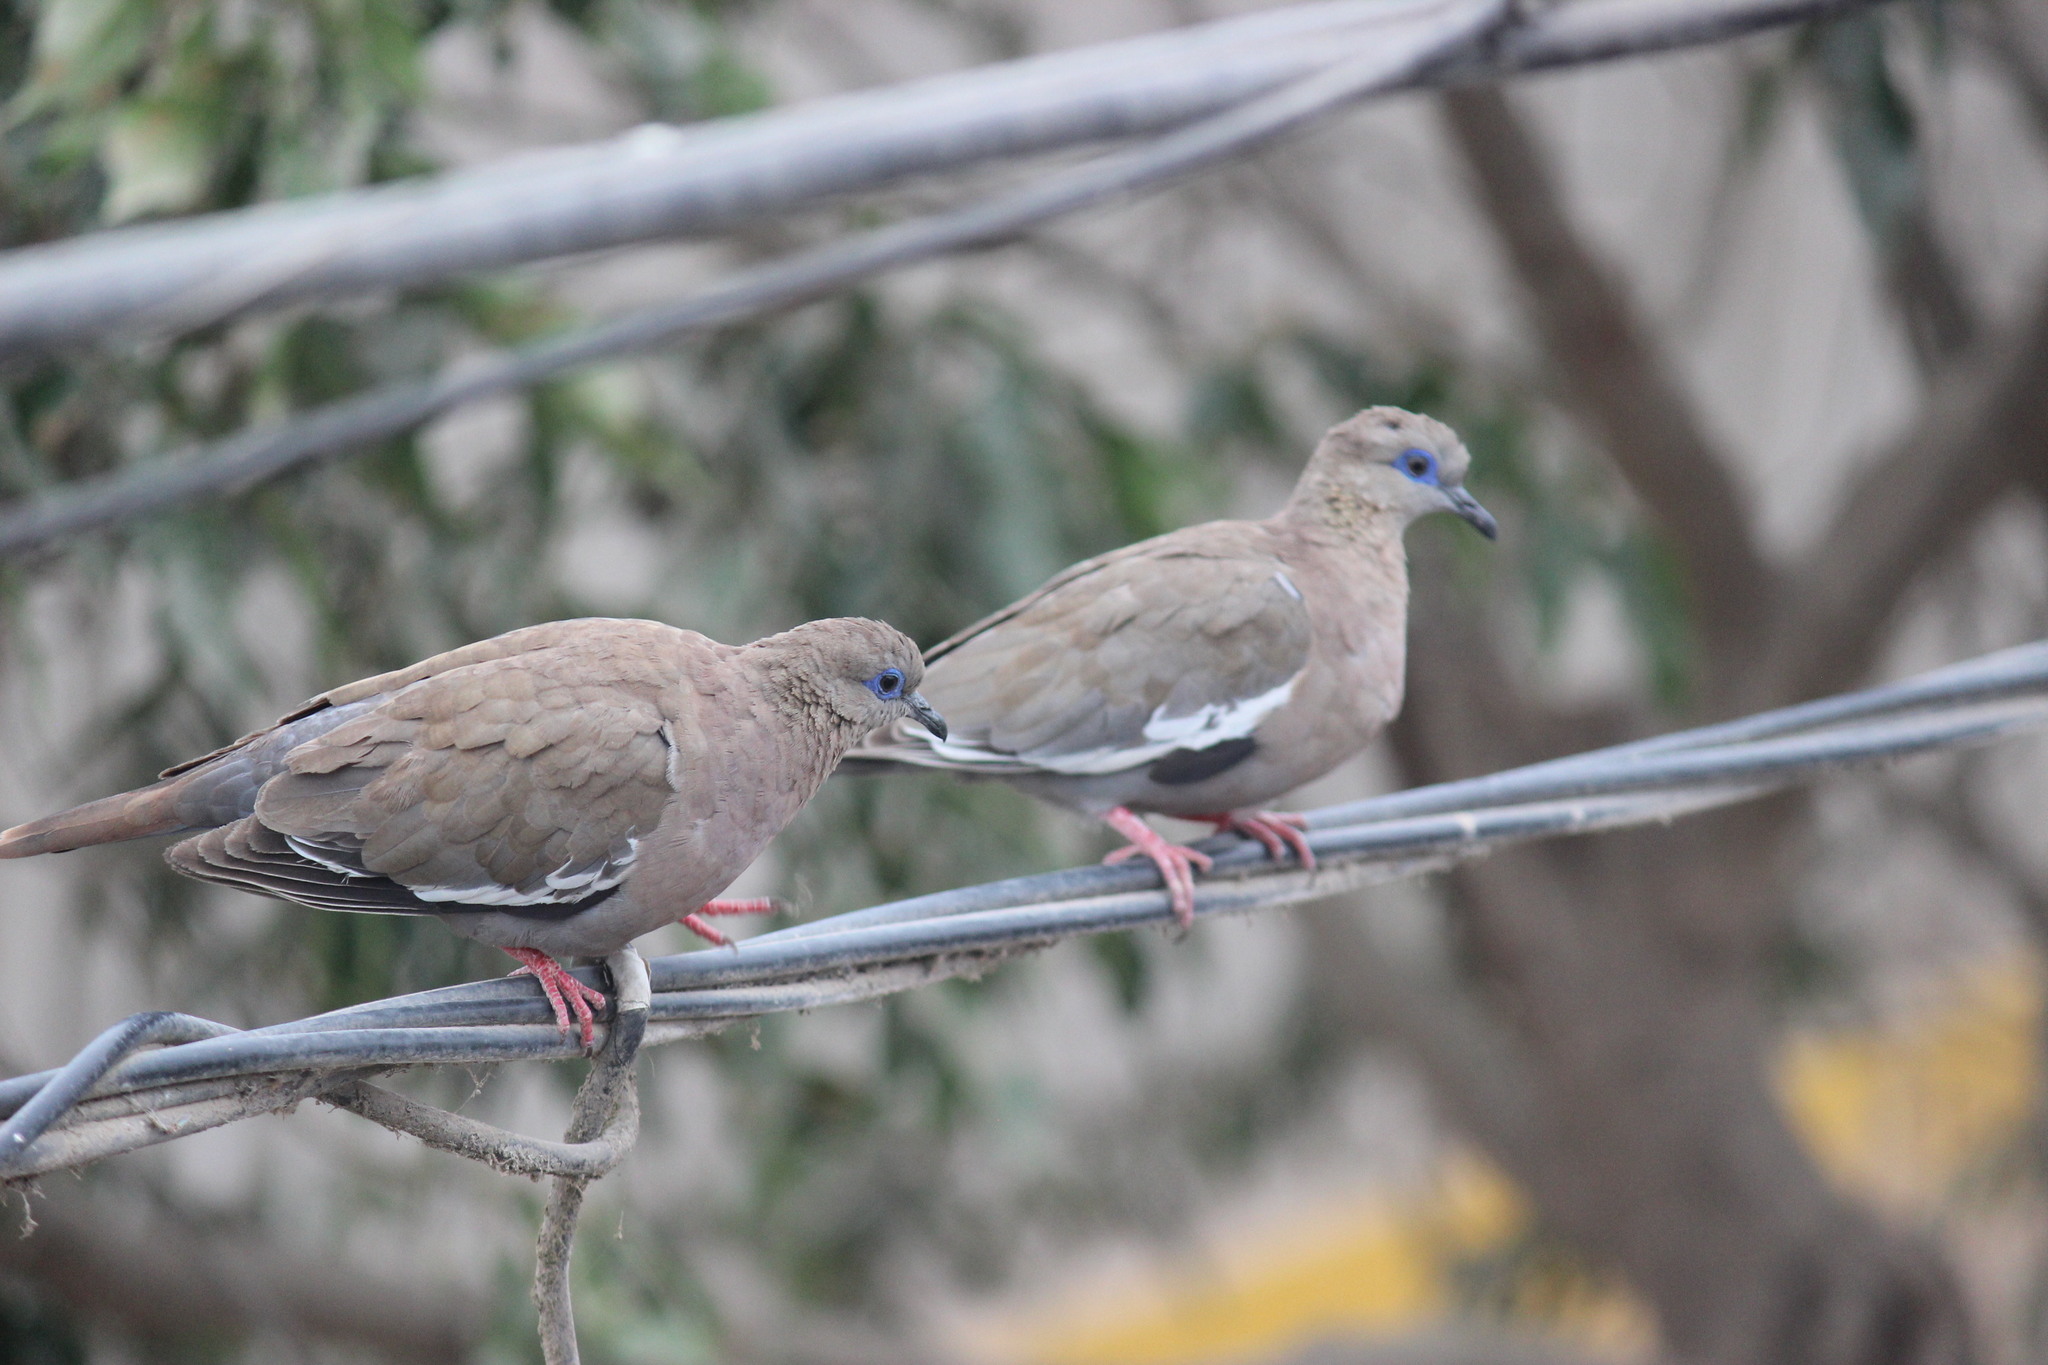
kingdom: Animalia
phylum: Chordata
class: Aves
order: Columbiformes
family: Columbidae
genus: Zenaida
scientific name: Zenaida meloda
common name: West peruvian dove
